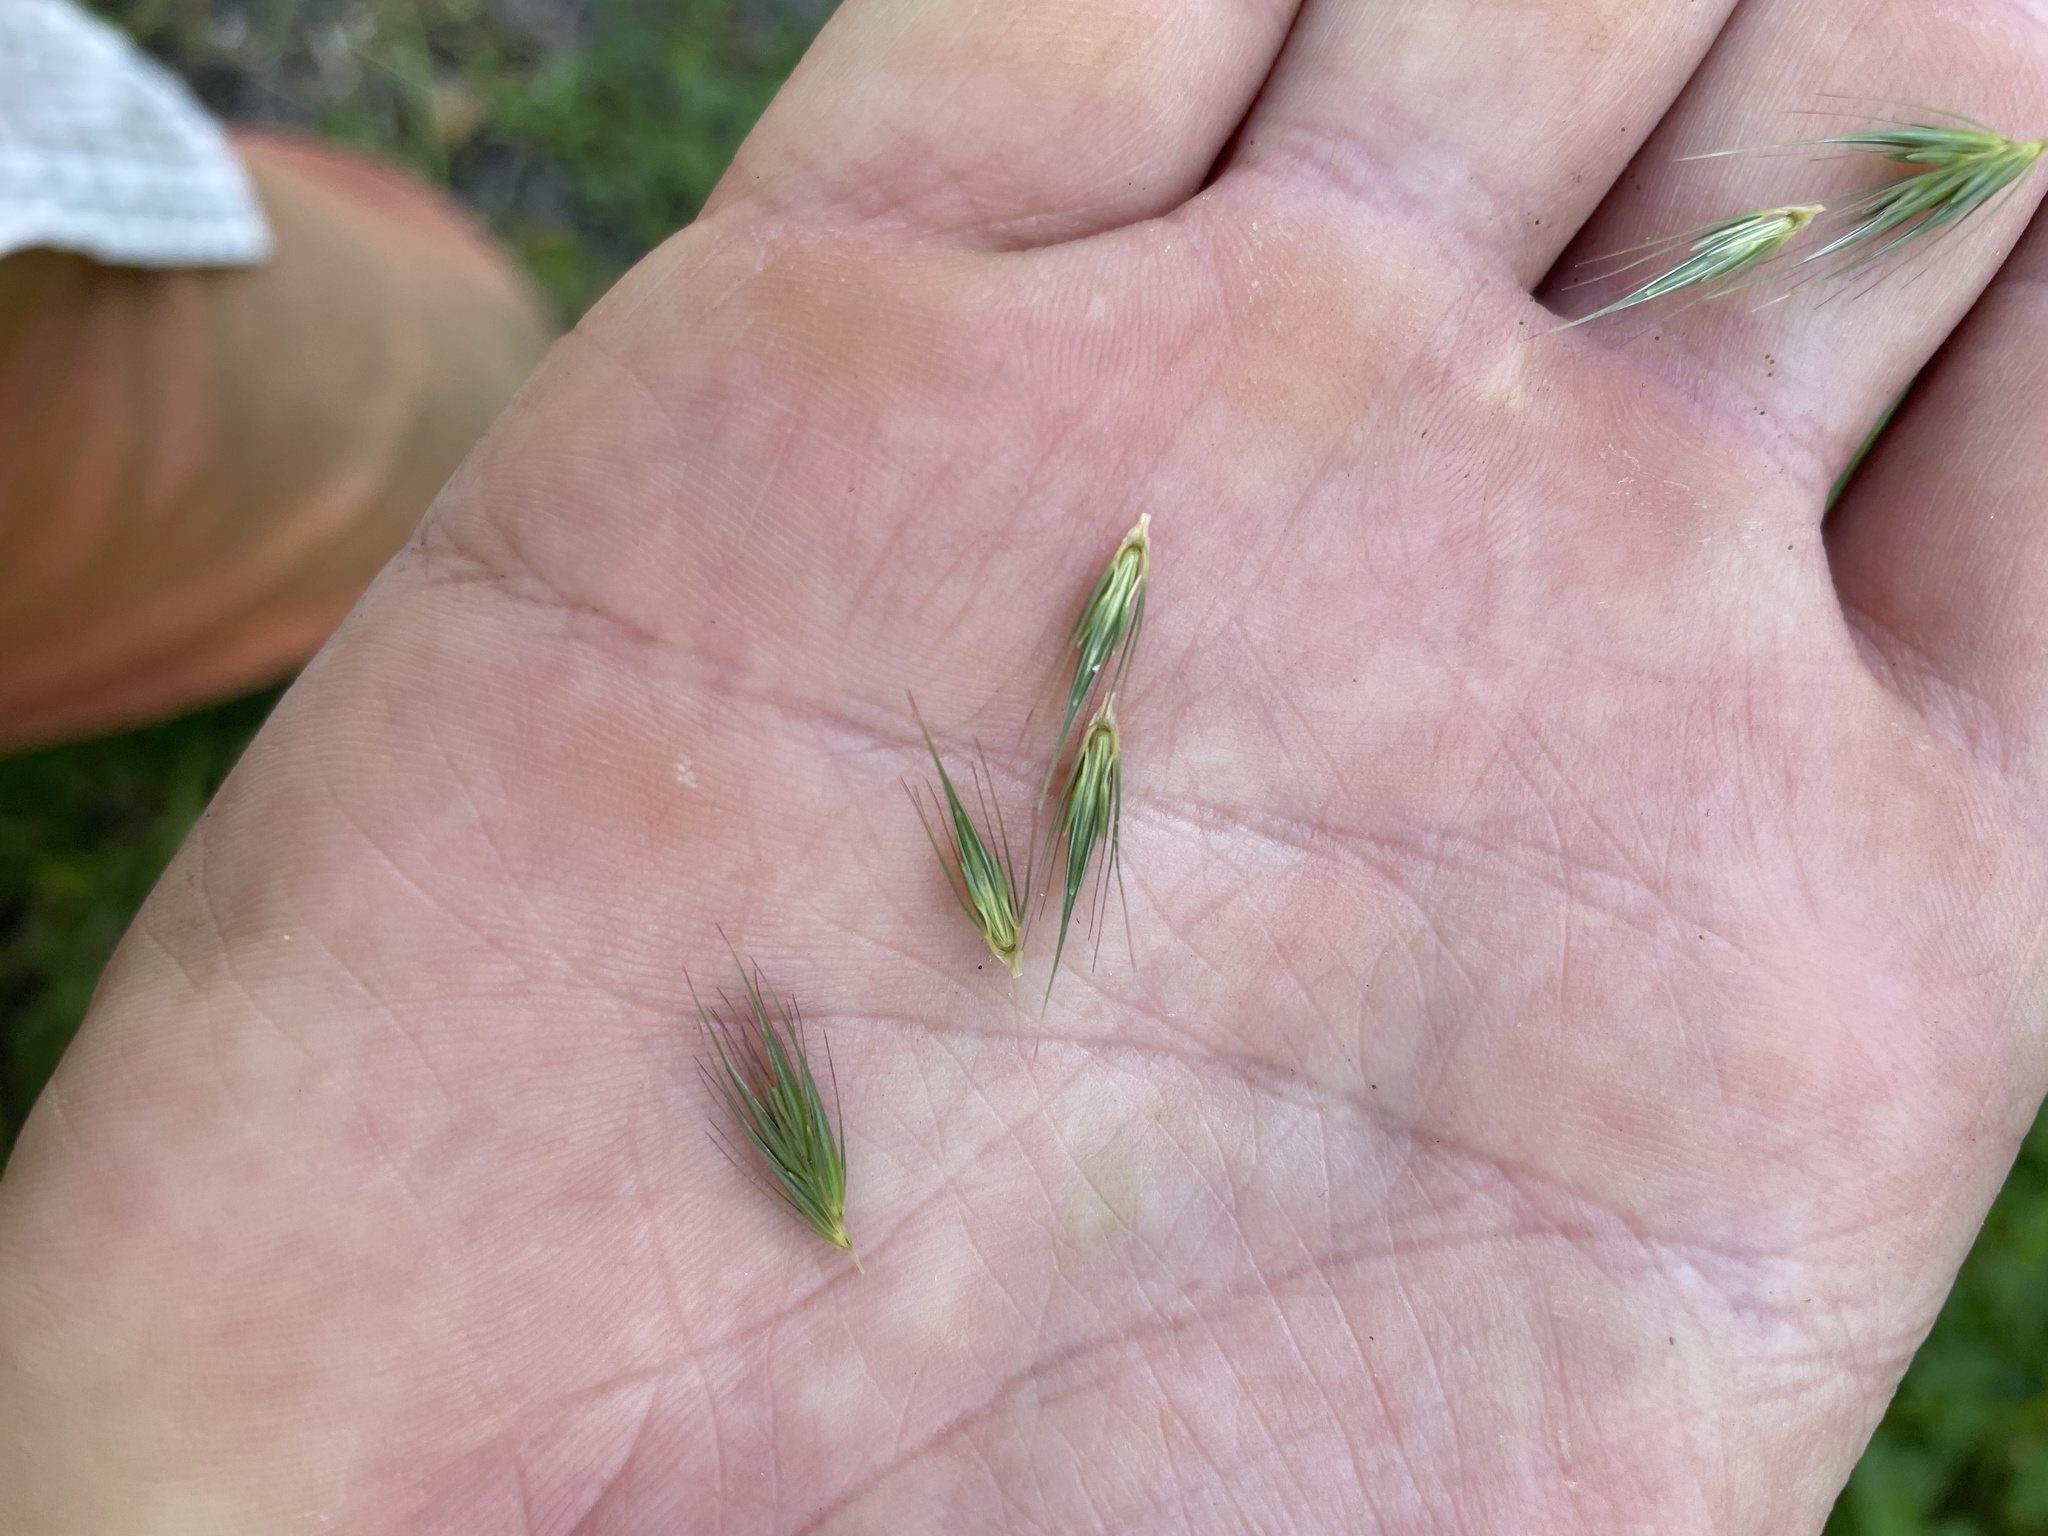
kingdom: Plantae
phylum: Tracheophyta
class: Liliopsida
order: Poales
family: Poaceae
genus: Hordeum
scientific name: Hordeum brachyantherum
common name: Meadow barley
